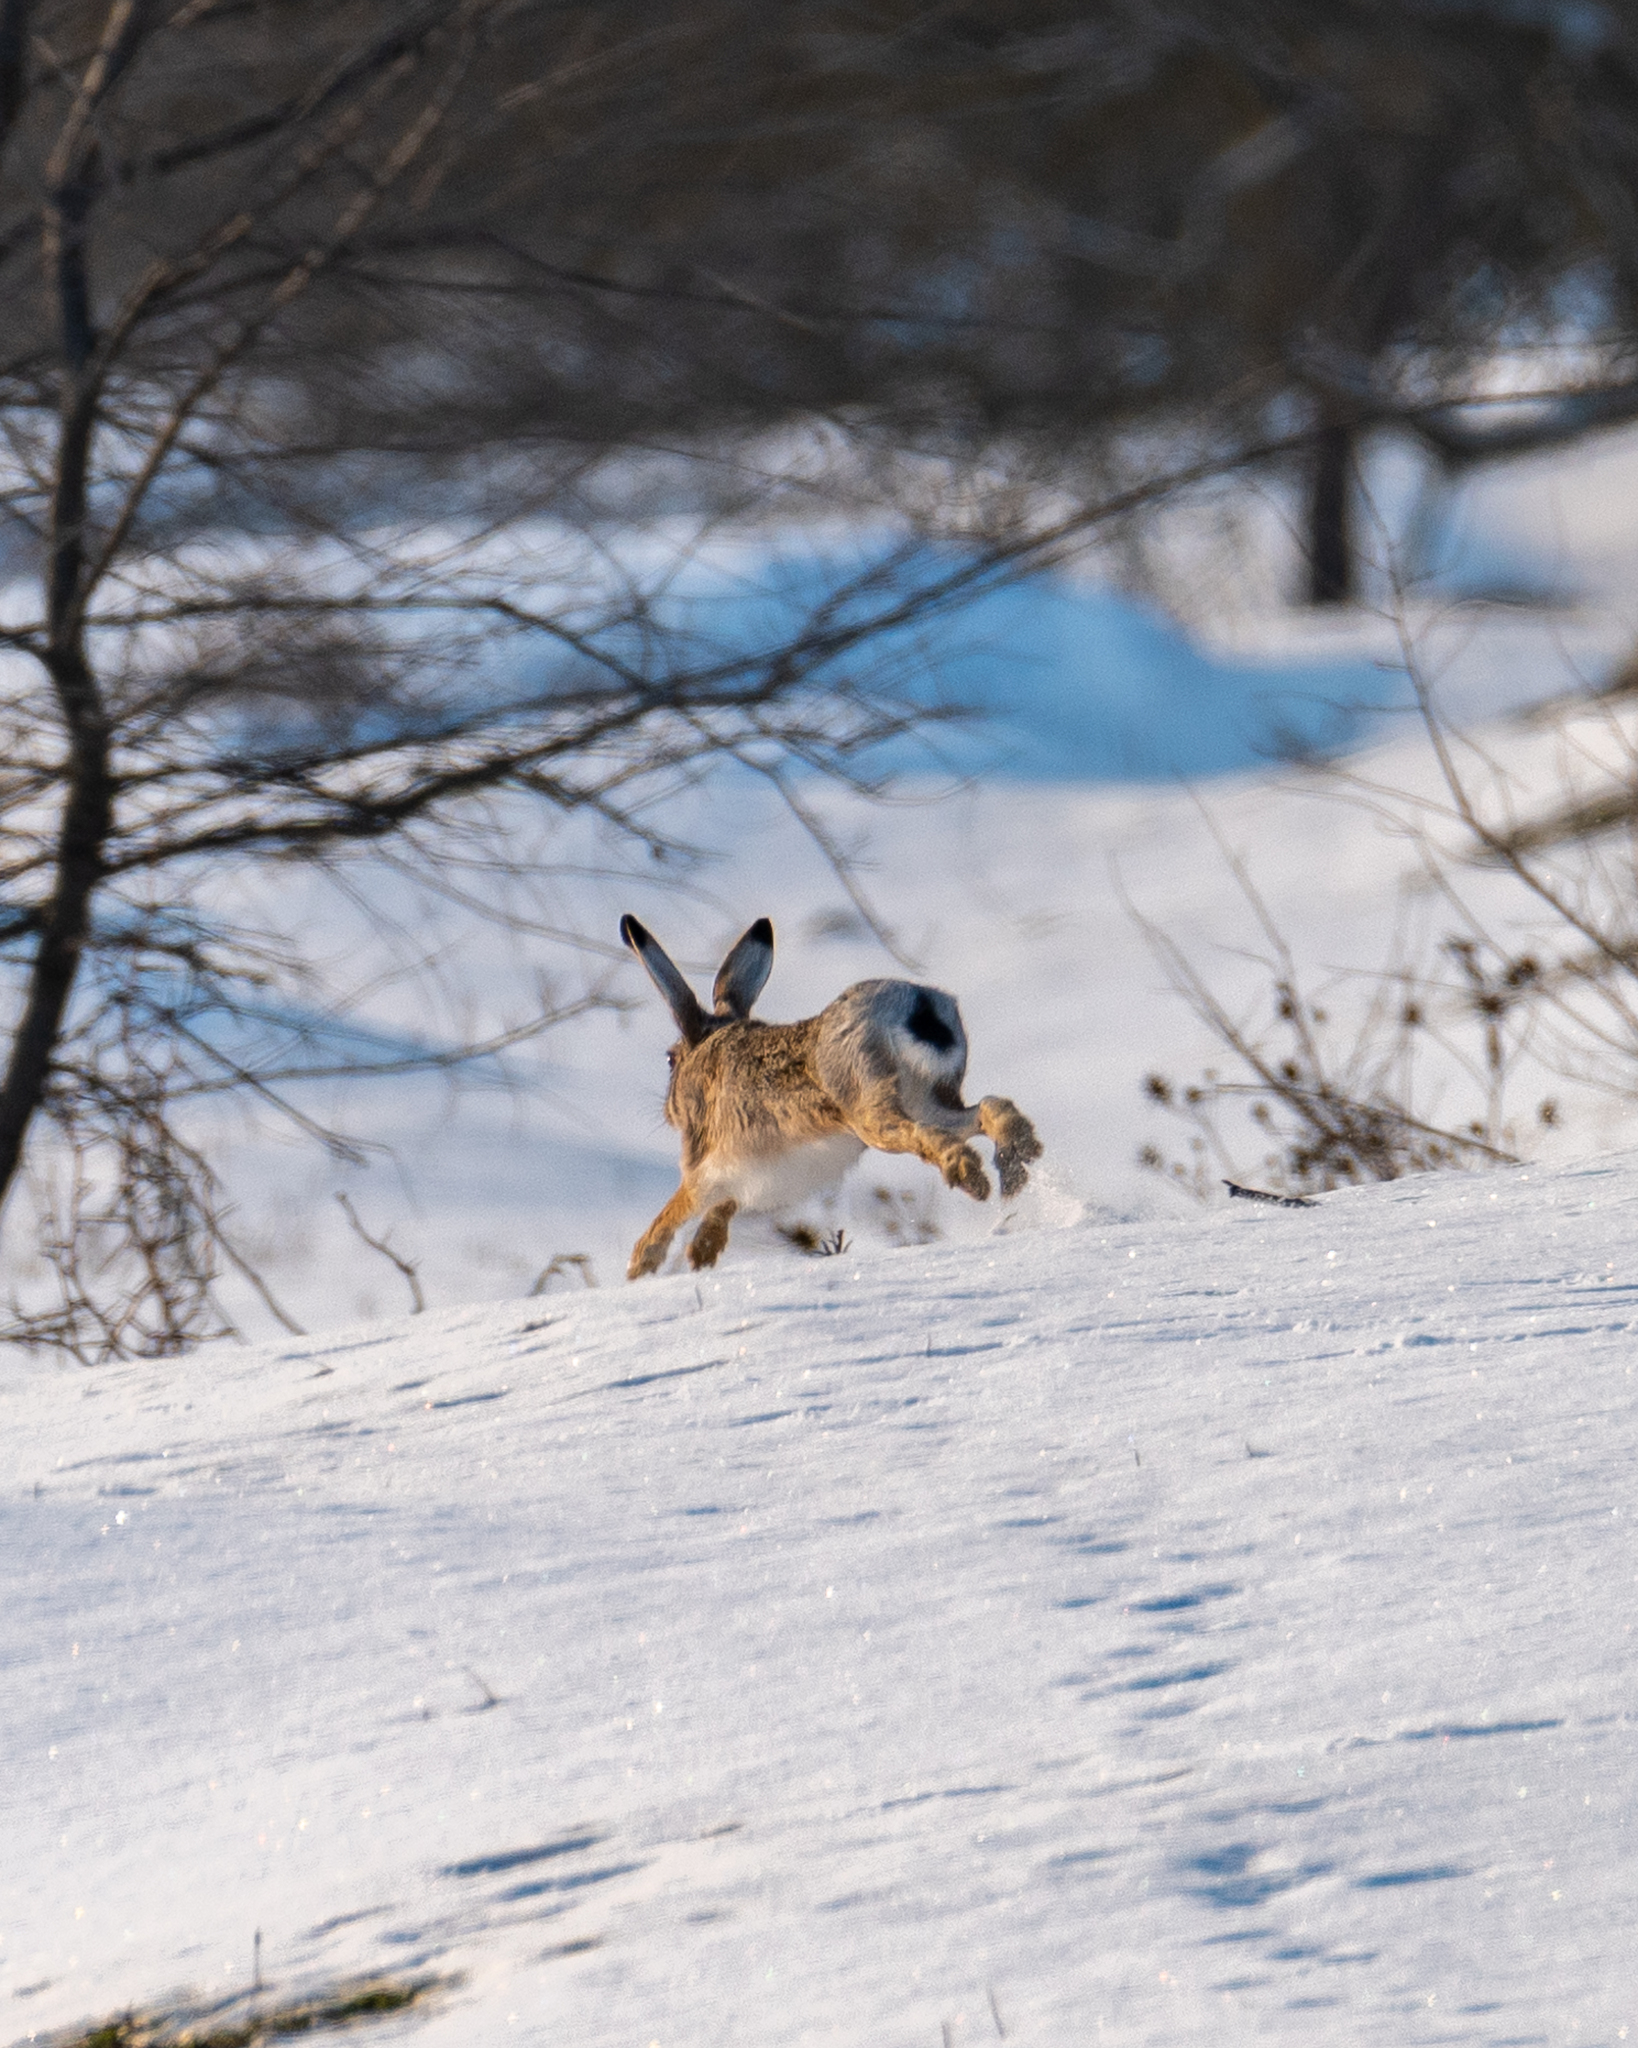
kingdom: Animalia
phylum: Chordata
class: Mammalia
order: Lagomorpha
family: Leporidae
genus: Lepus
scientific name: Lepus europaeus
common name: European hare
